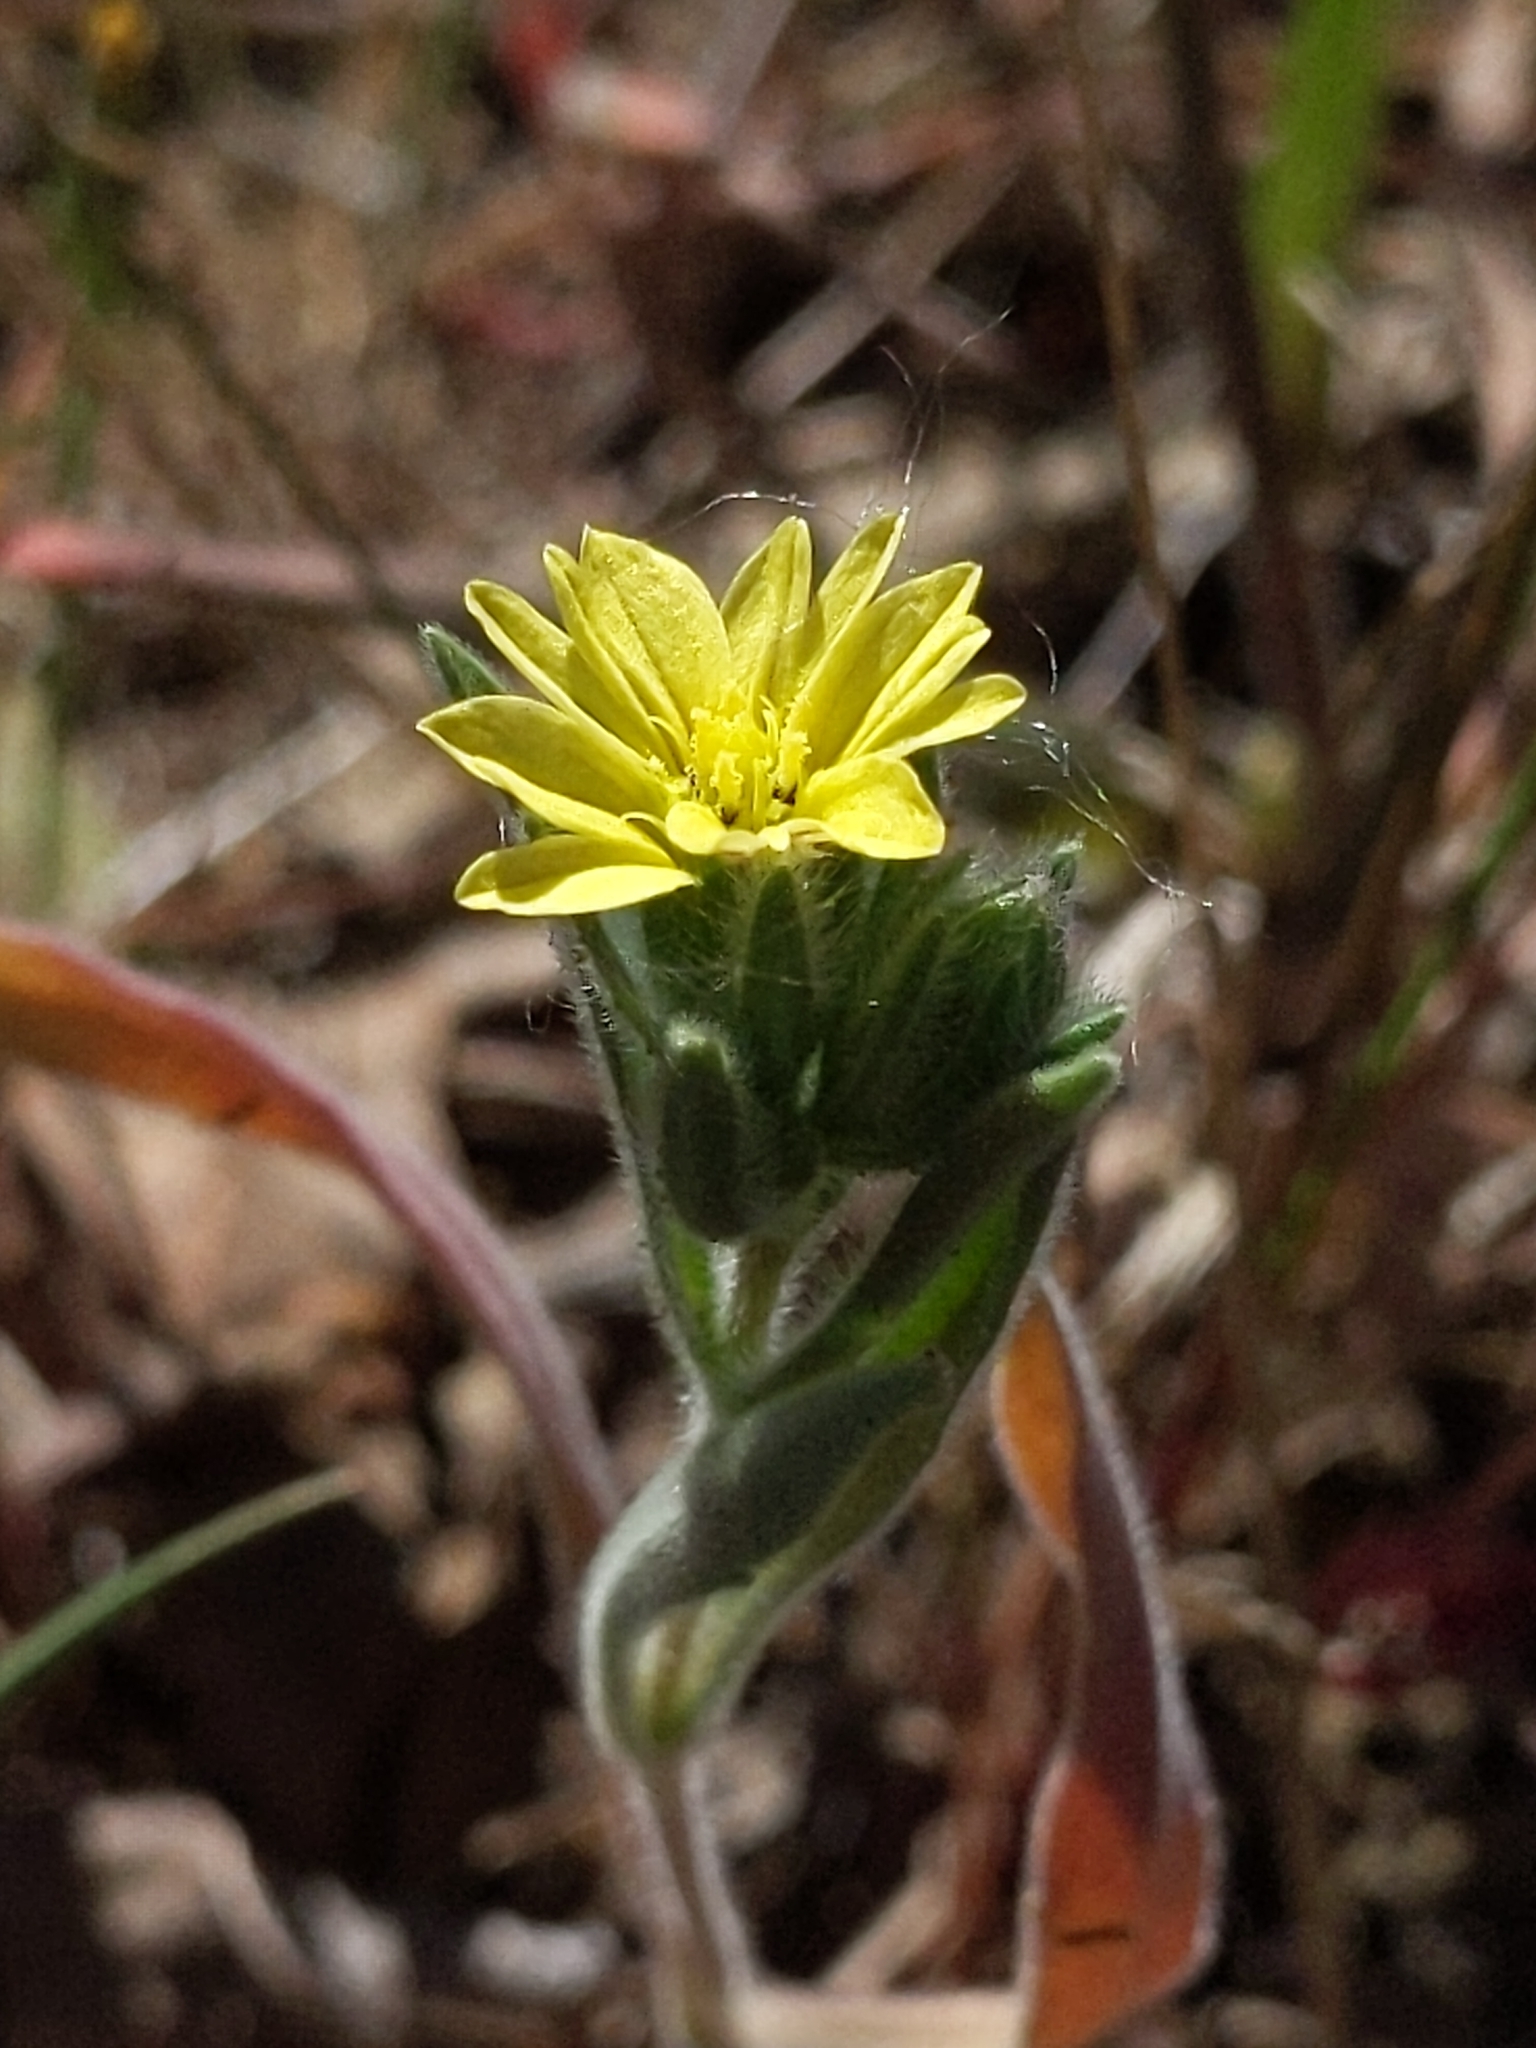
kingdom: Plantae
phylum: Tracheophyta
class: Magnoliopsida
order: Asterales
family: Asteraceae
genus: Lagophylla
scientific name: Lagophylla ramosissima
